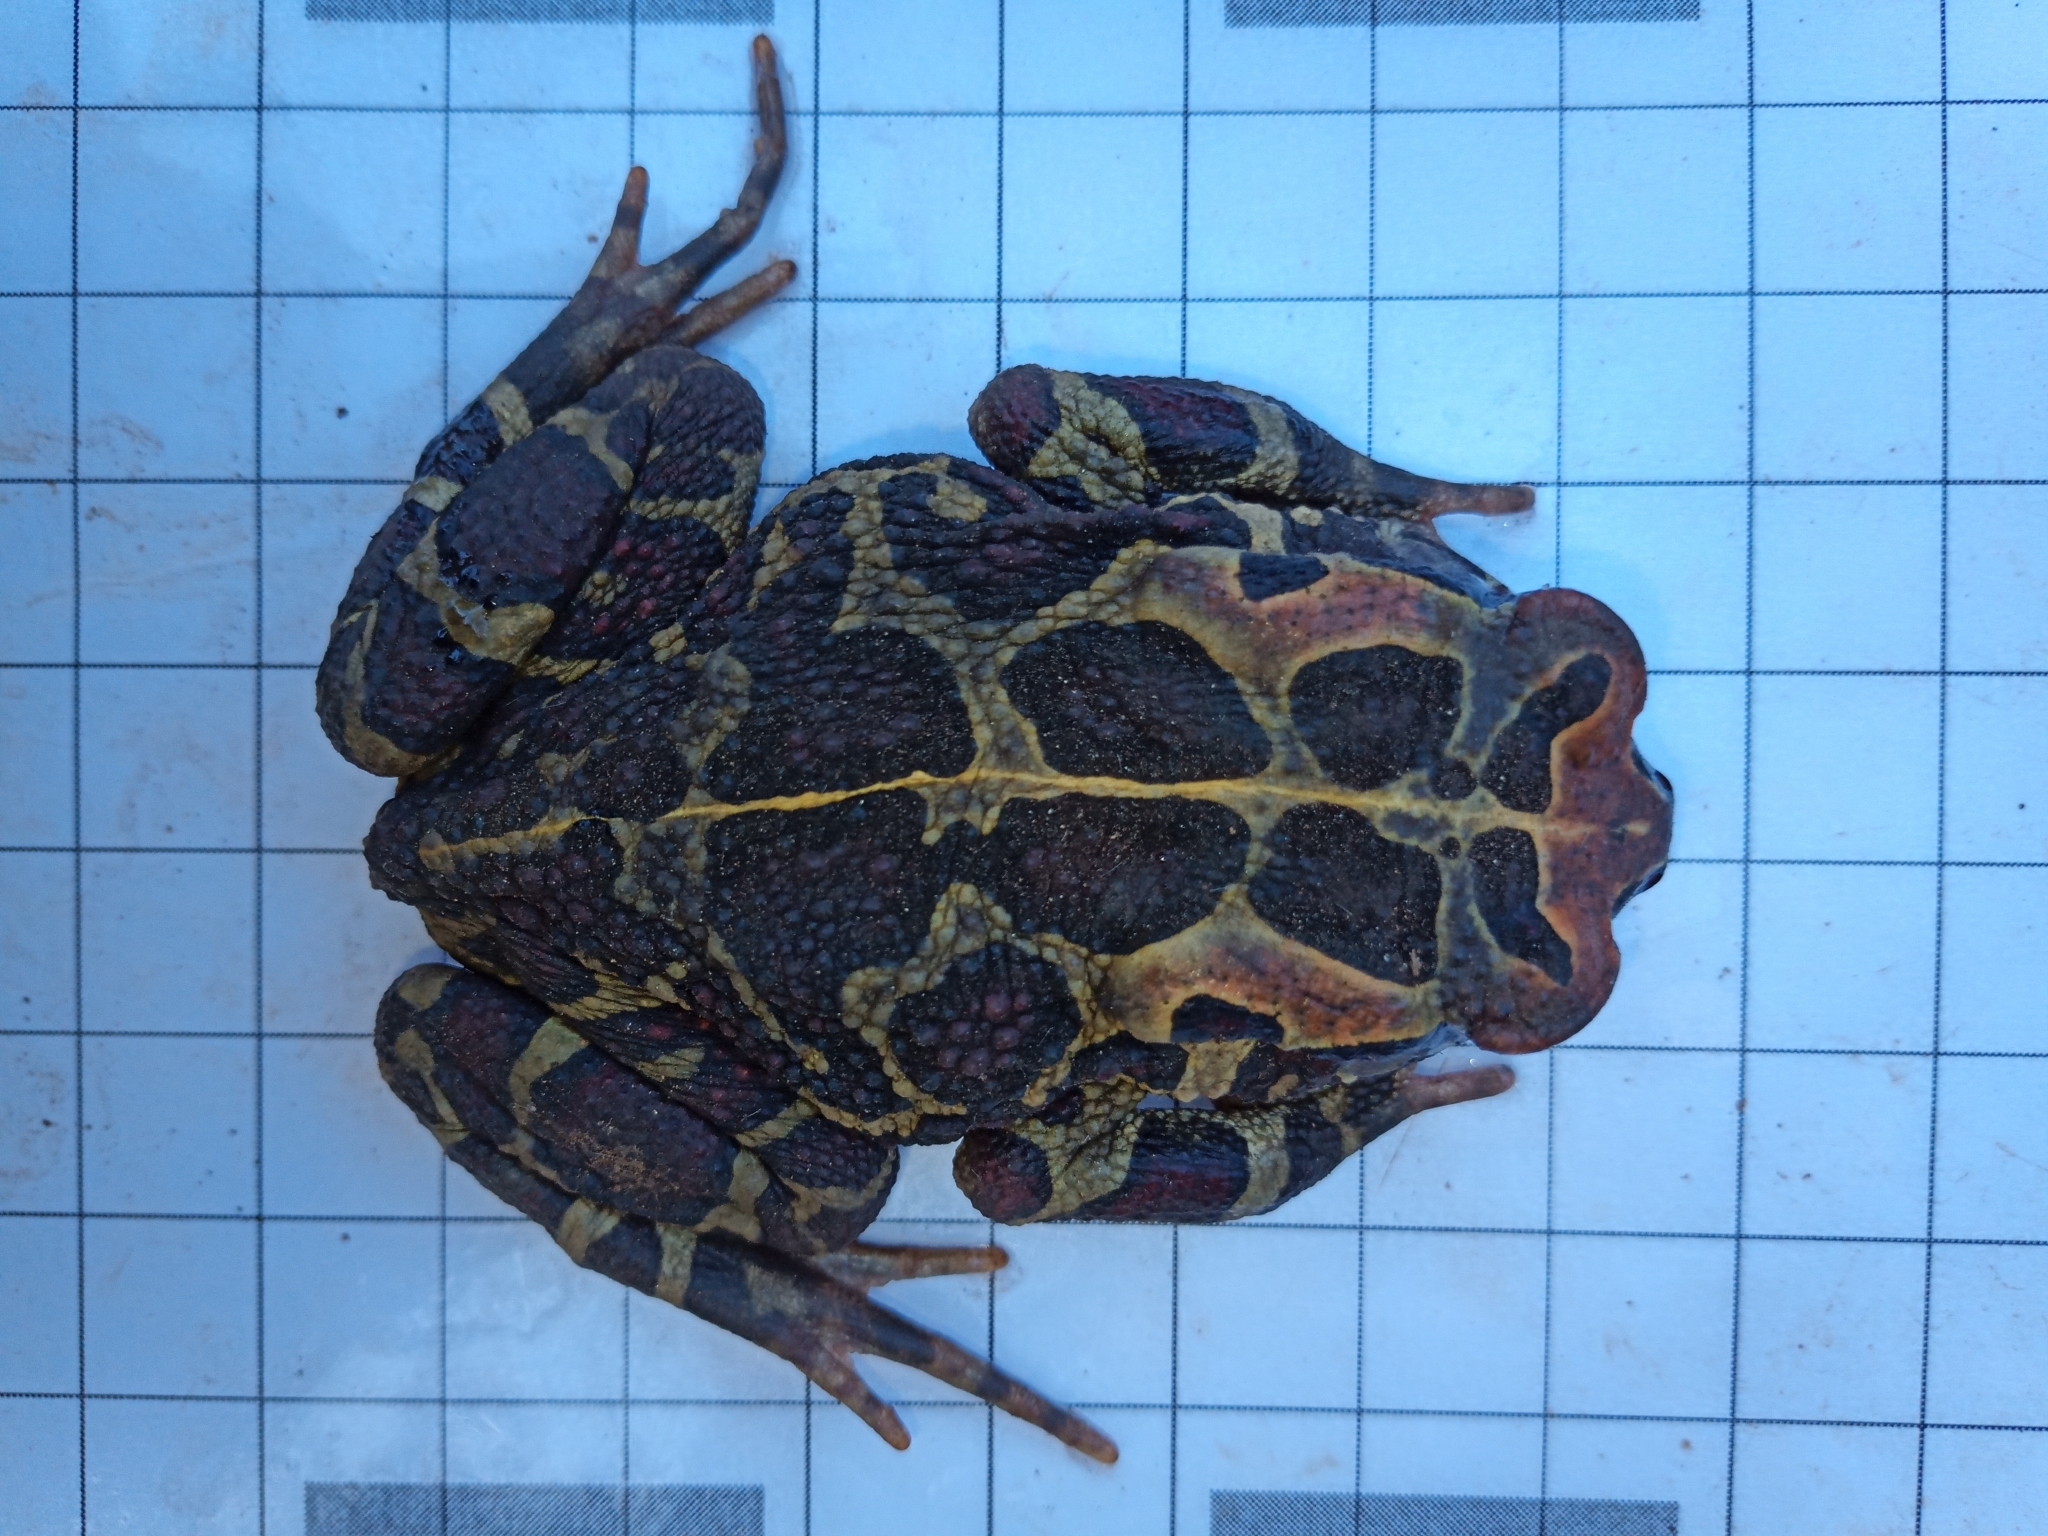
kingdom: Animalia
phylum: Chordata
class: Amphibia
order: Anura
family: Bufonidae
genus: Sclerophrys
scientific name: Sclerophrys pantherina
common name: Panther toad
